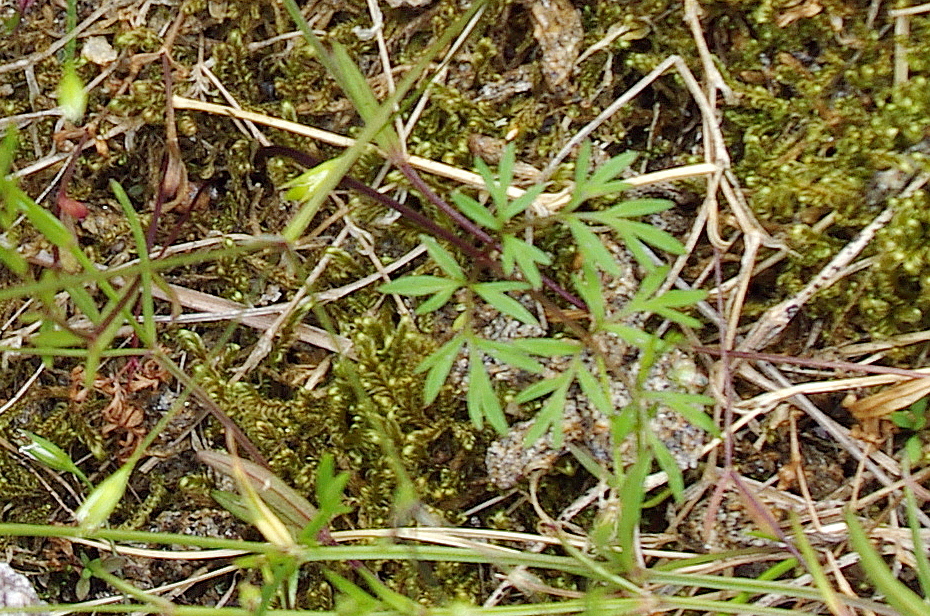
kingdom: Plantae
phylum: Tracheophyta
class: Magnoliopsida
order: Apiales
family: Apiaceae
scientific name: Apiaceae
